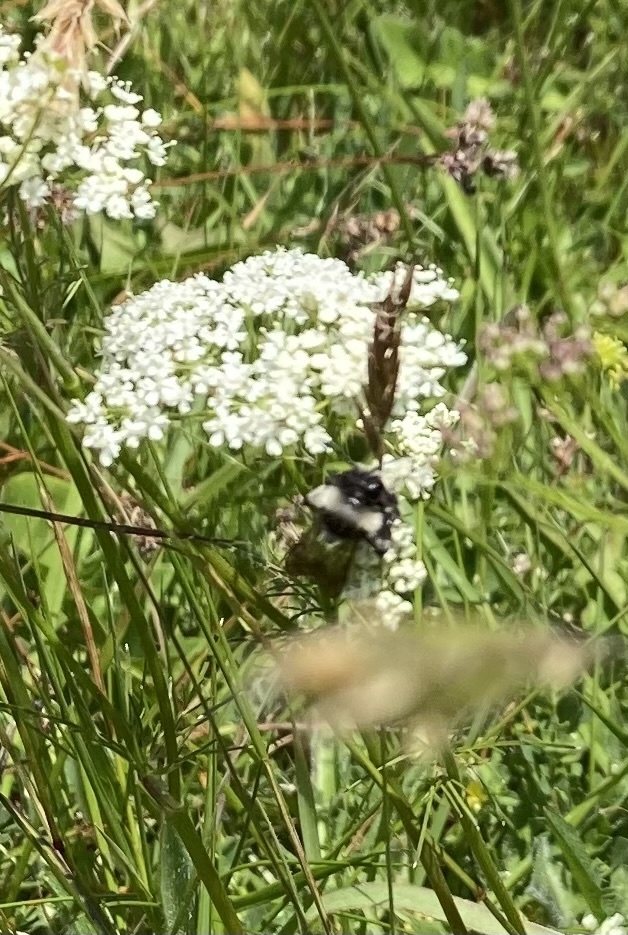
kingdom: Animalia
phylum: Arthropoda
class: Insecta
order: Hymenoptera
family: Andrenidae
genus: Andrena
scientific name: Andrena cineraria
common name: Ashy mining bee
